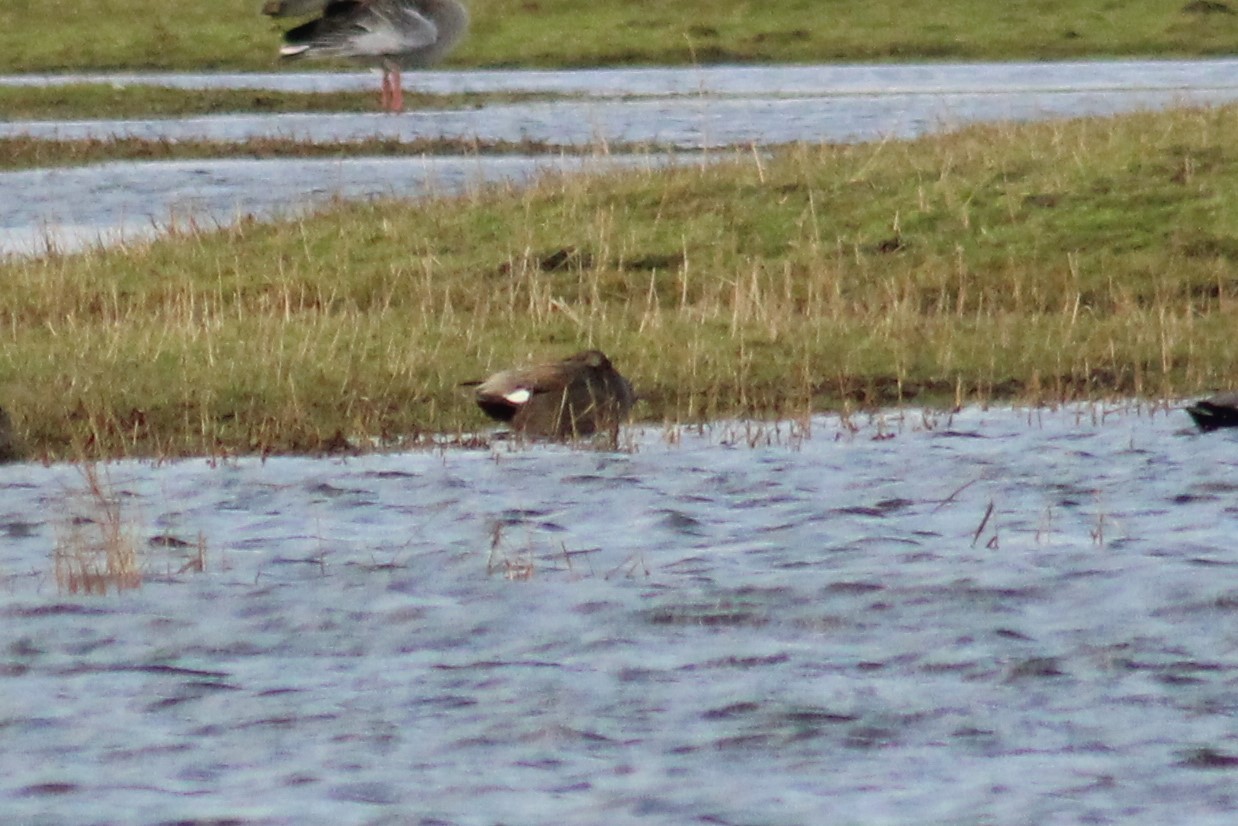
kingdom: Animalia
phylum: Chordata
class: Aves
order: Anseriformes
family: Anatidae
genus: Mareca
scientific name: Mareca strepera
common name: Gadwall
